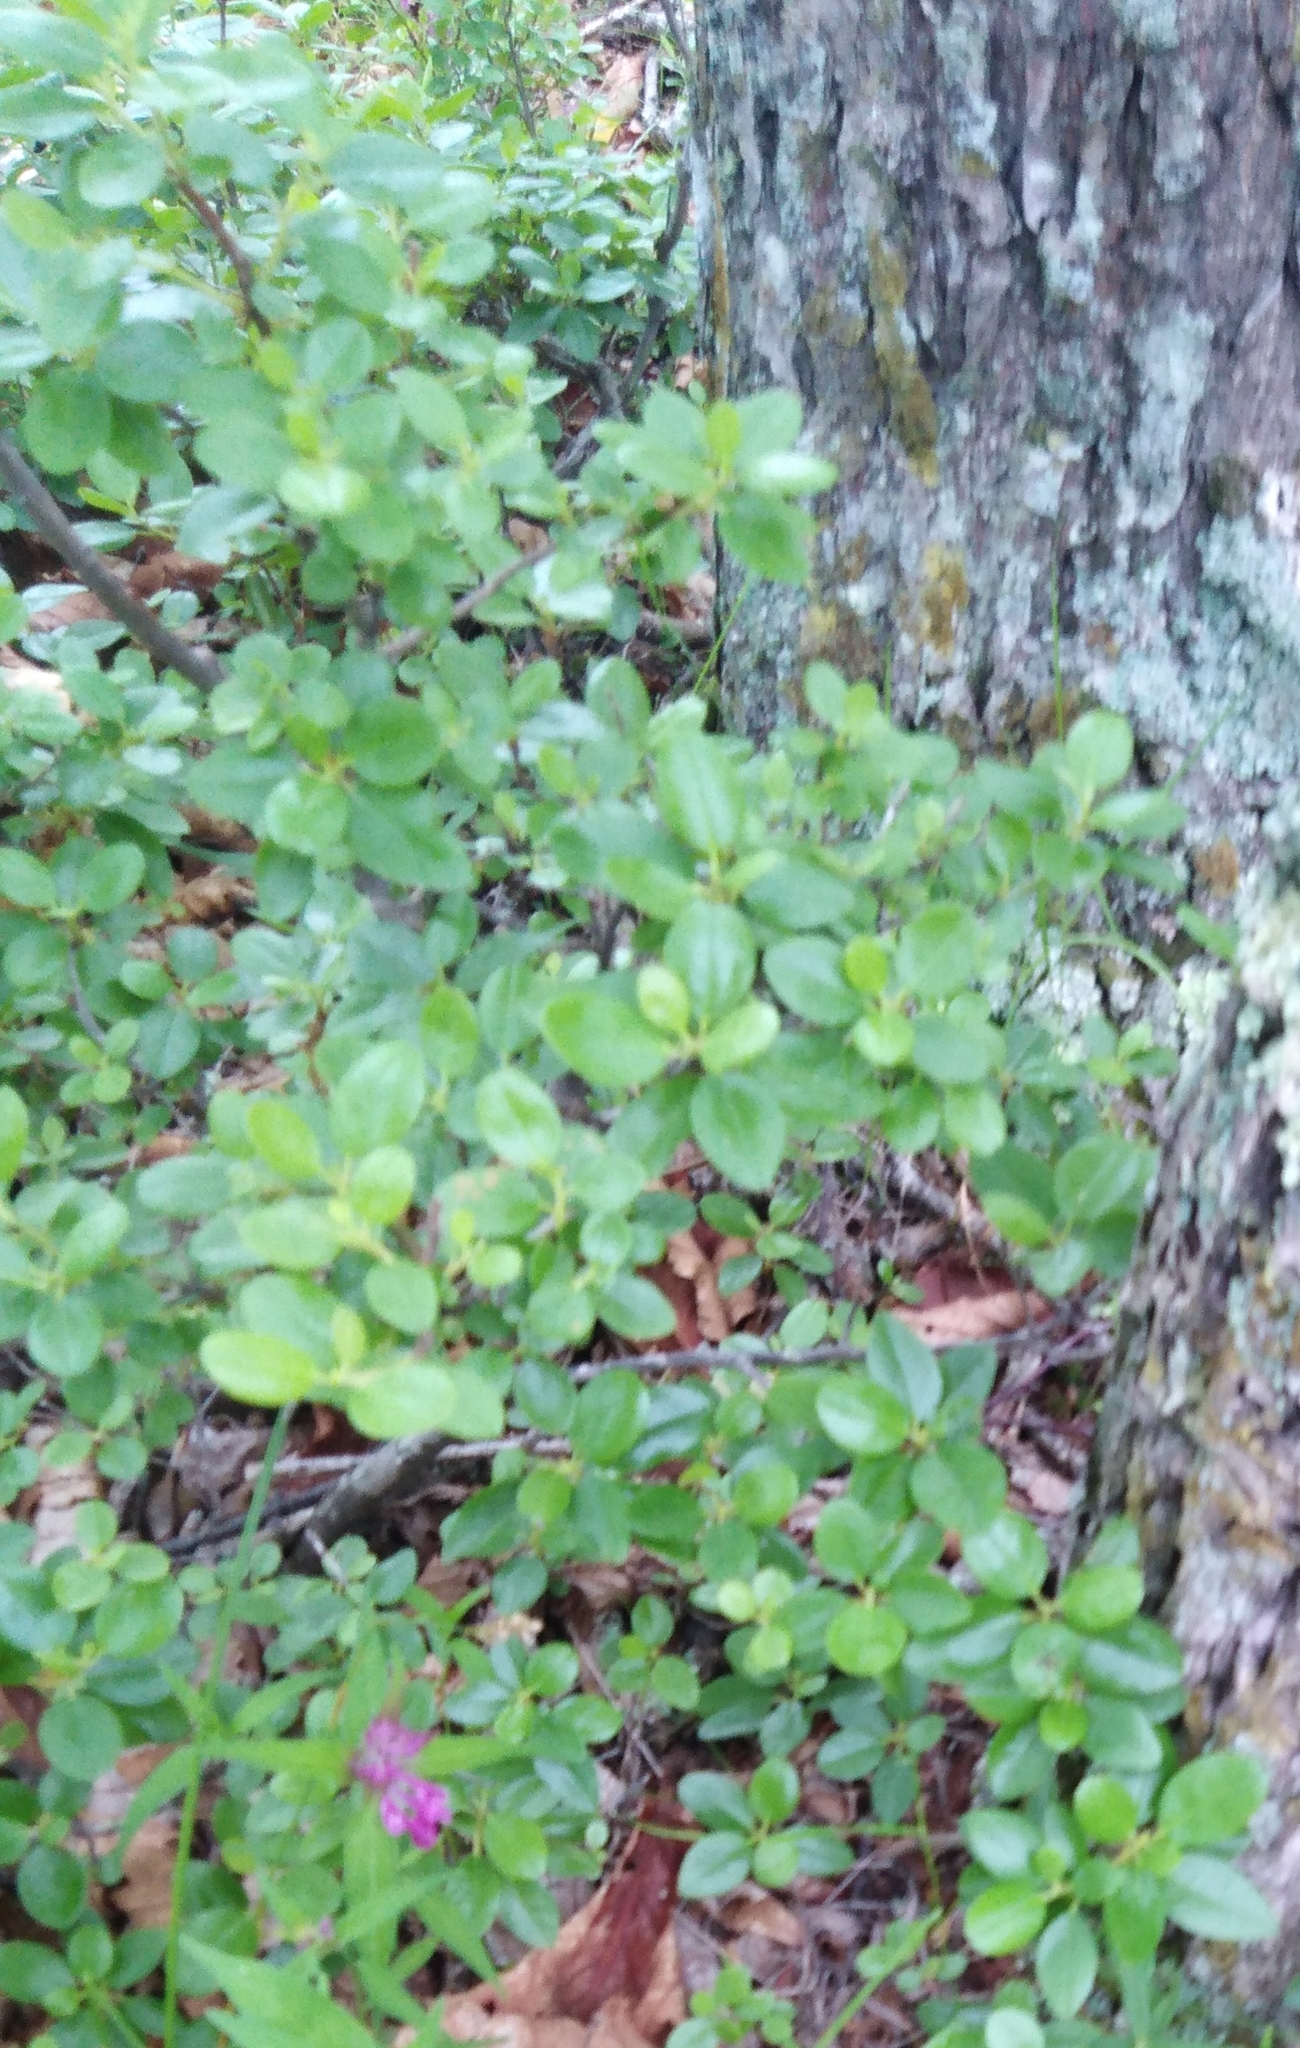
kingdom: Plantae
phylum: Tracheophyta
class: Magnoliopsida
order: Ericales
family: Ericaceae
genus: Rhododendron
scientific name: Rhododendron sichotense
